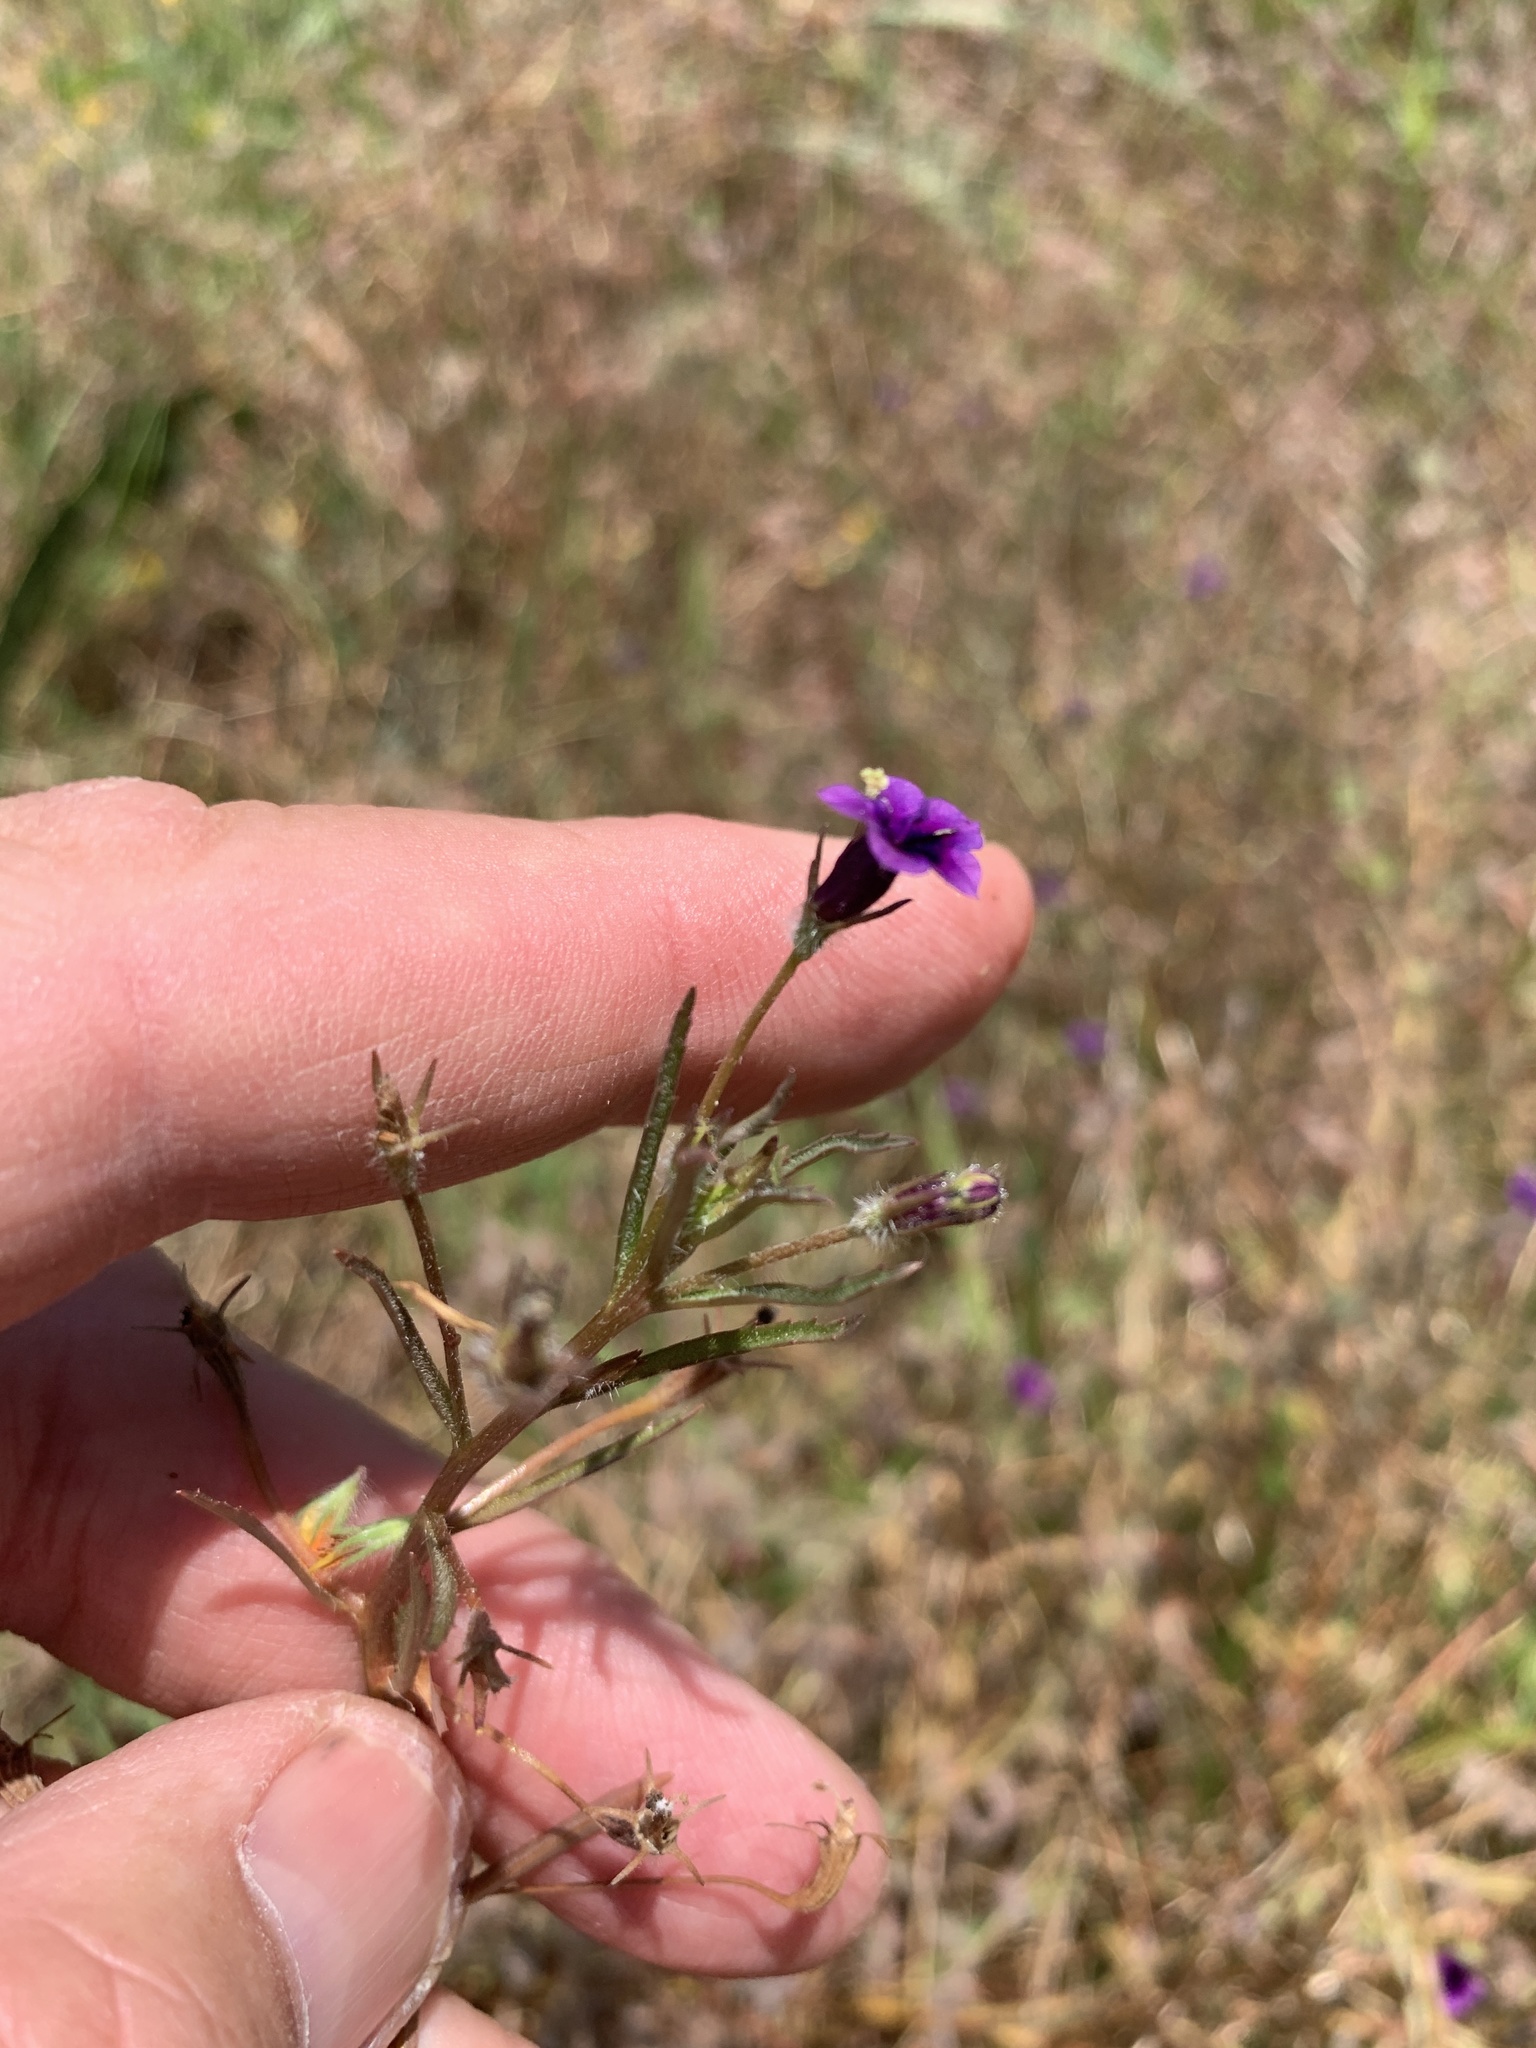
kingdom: Plantae
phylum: Tracheophyta
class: Magnoliopsida
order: Asterales
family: Campanulaceae
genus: Monopsis
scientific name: Monopsis debilis
